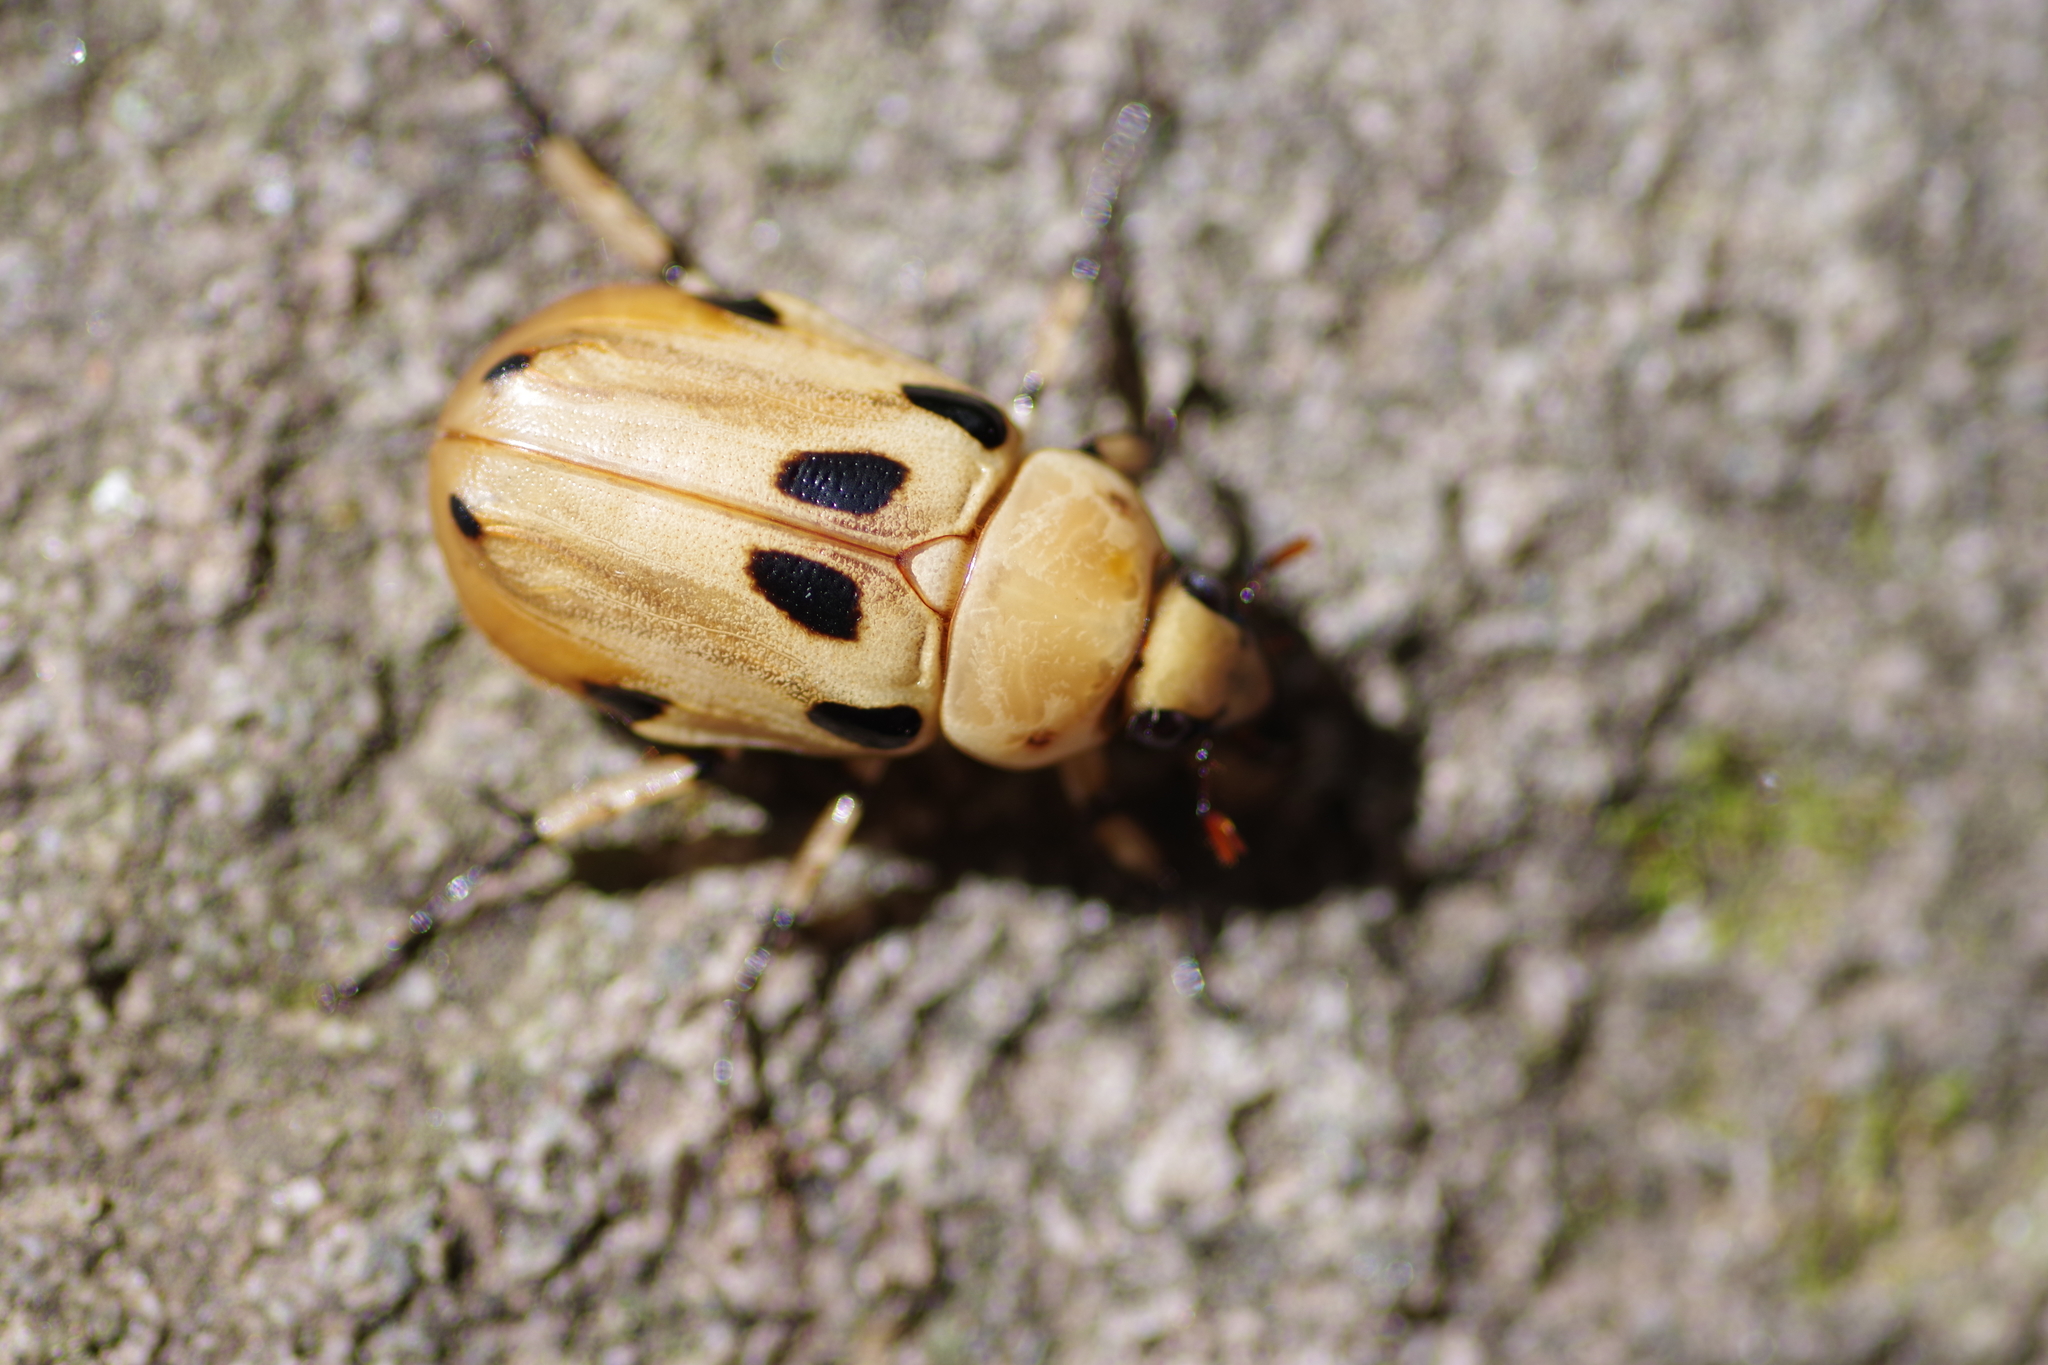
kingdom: Animalia
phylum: Arthropoda
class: Insecta
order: Coleoptera
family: Scarabaeidae
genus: Ancognatha
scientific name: Ancognatha vulgaris
